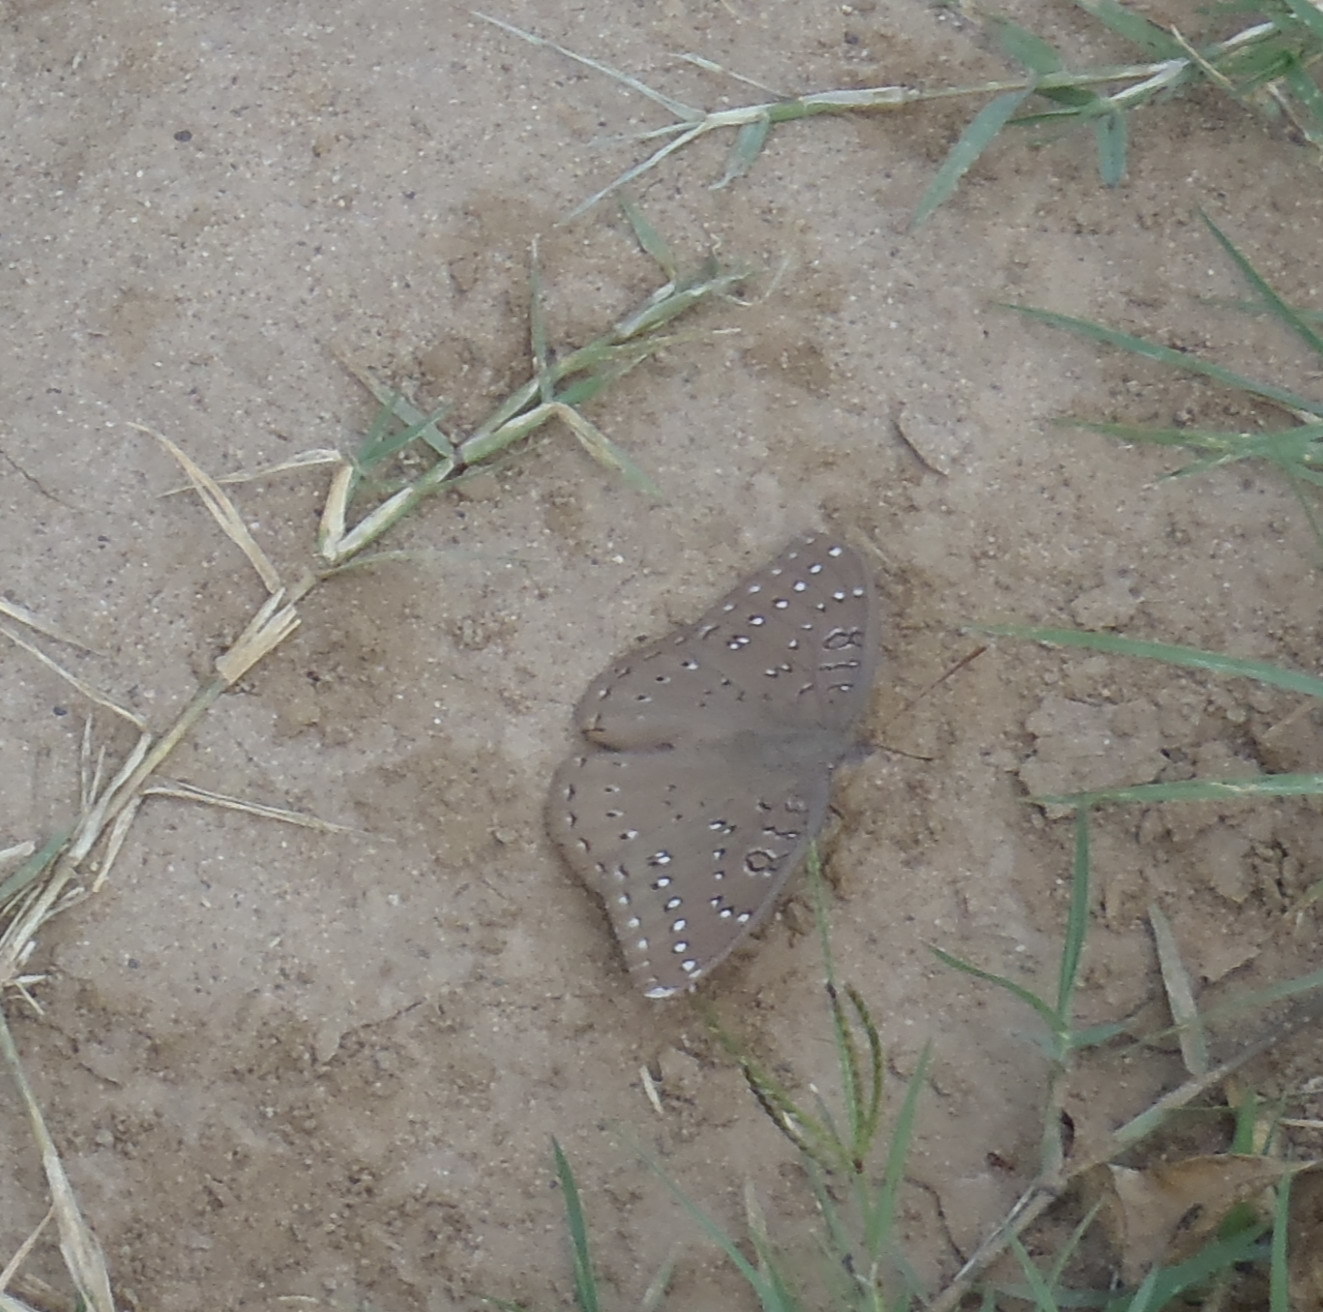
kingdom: Animalia
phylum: Arthropoda
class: Insecta
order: Lepidoptera
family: Nymphalidae
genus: Hamanumida
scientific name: Hamanumida daedalus
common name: Guinea-fowl butterfly
